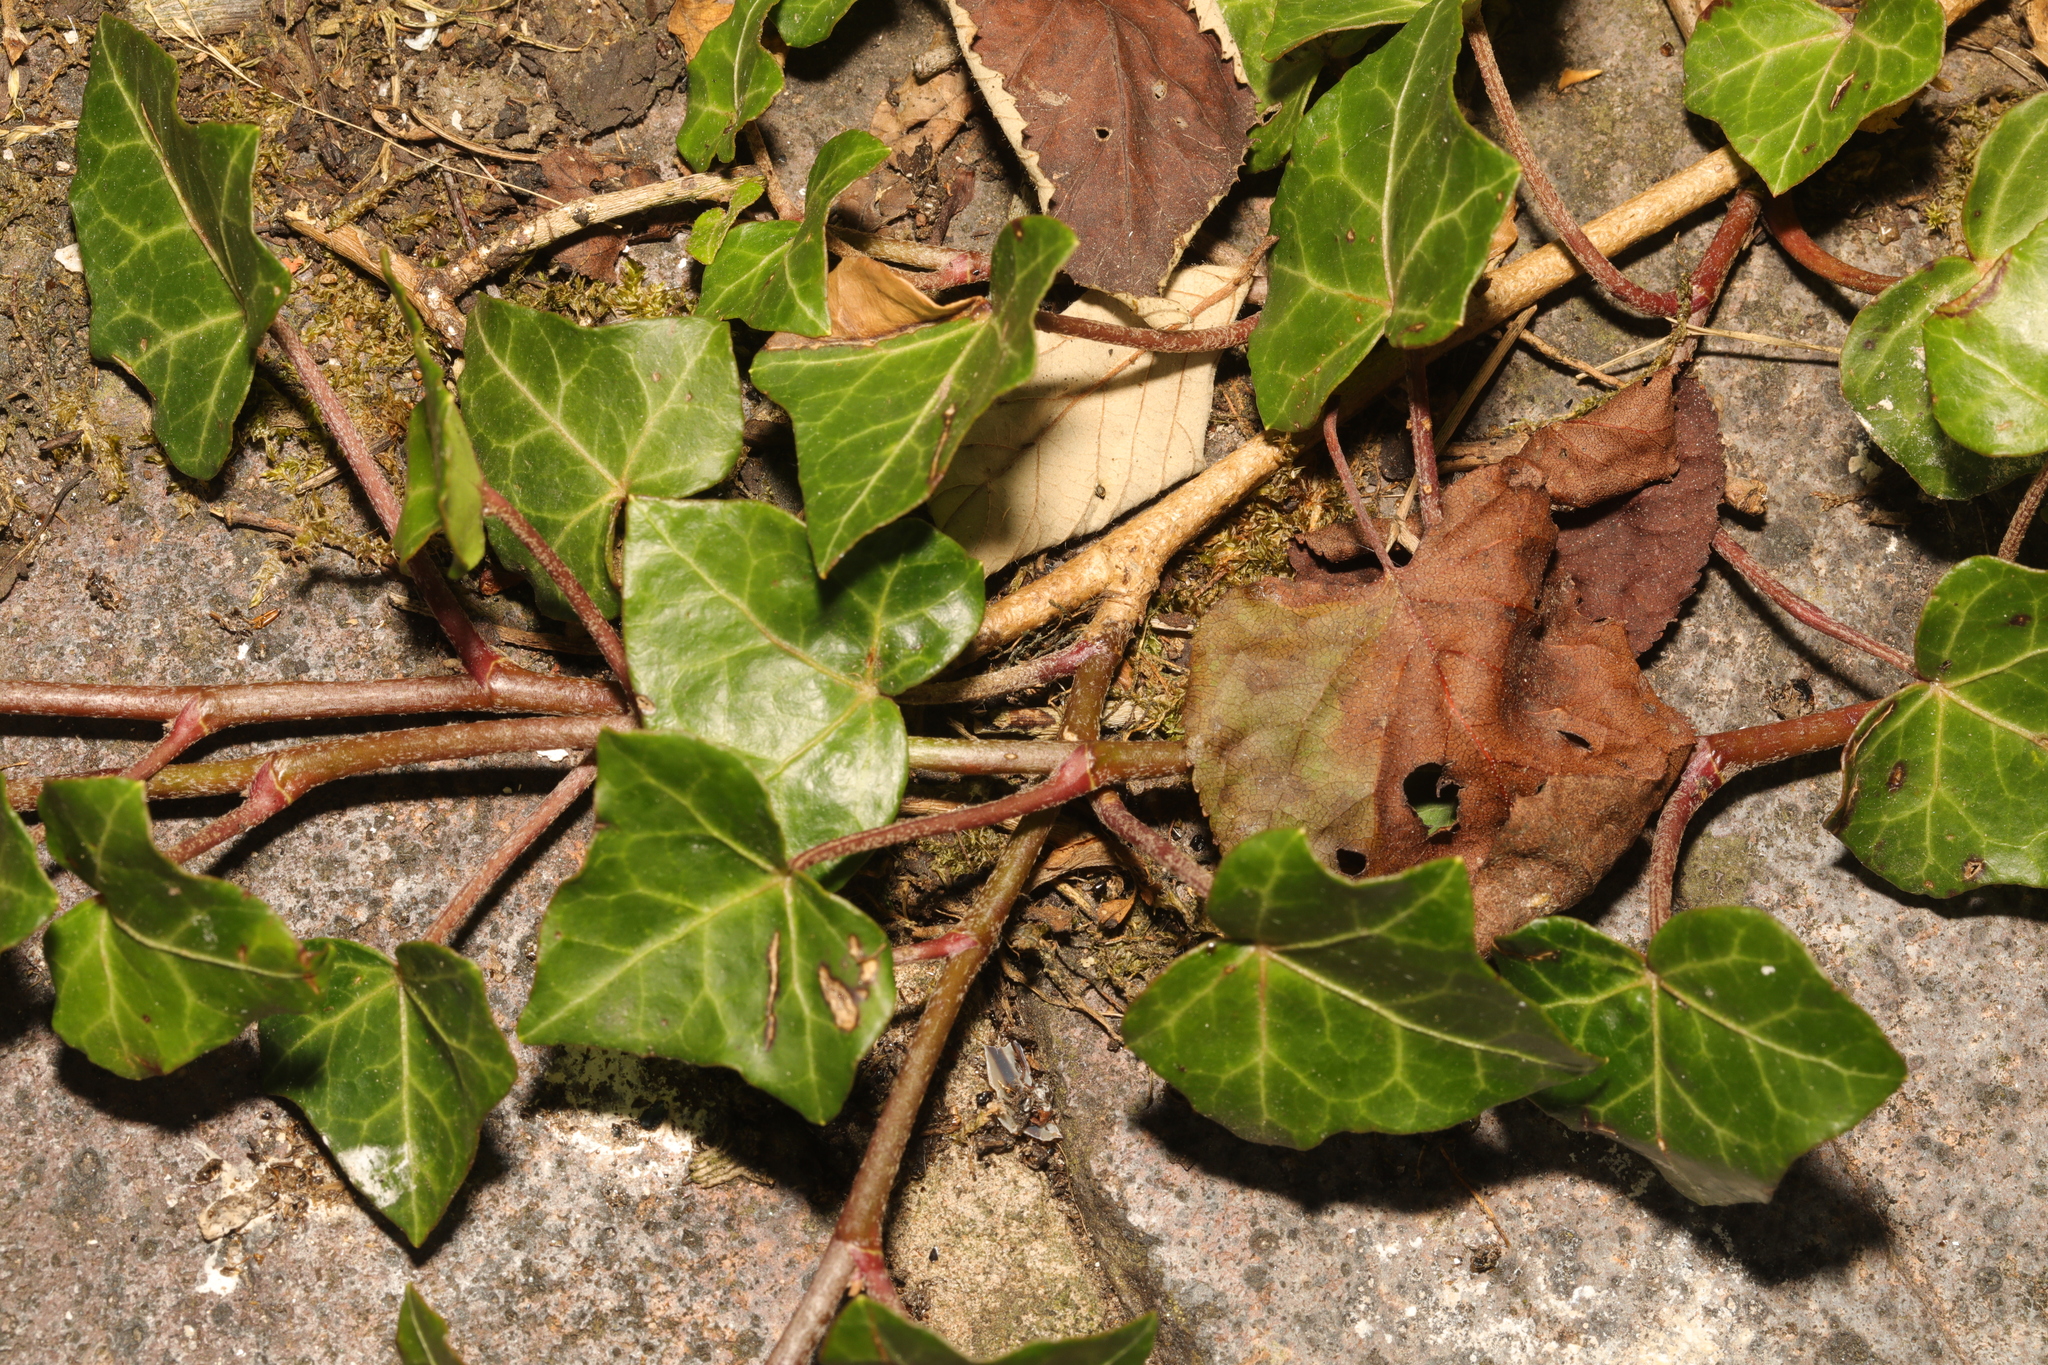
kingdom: Plantae
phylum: Tracheophyta
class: Magnoliopsida
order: Apiales
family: Araliaceae
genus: Hedera
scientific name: Hedera helix
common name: Ivy
